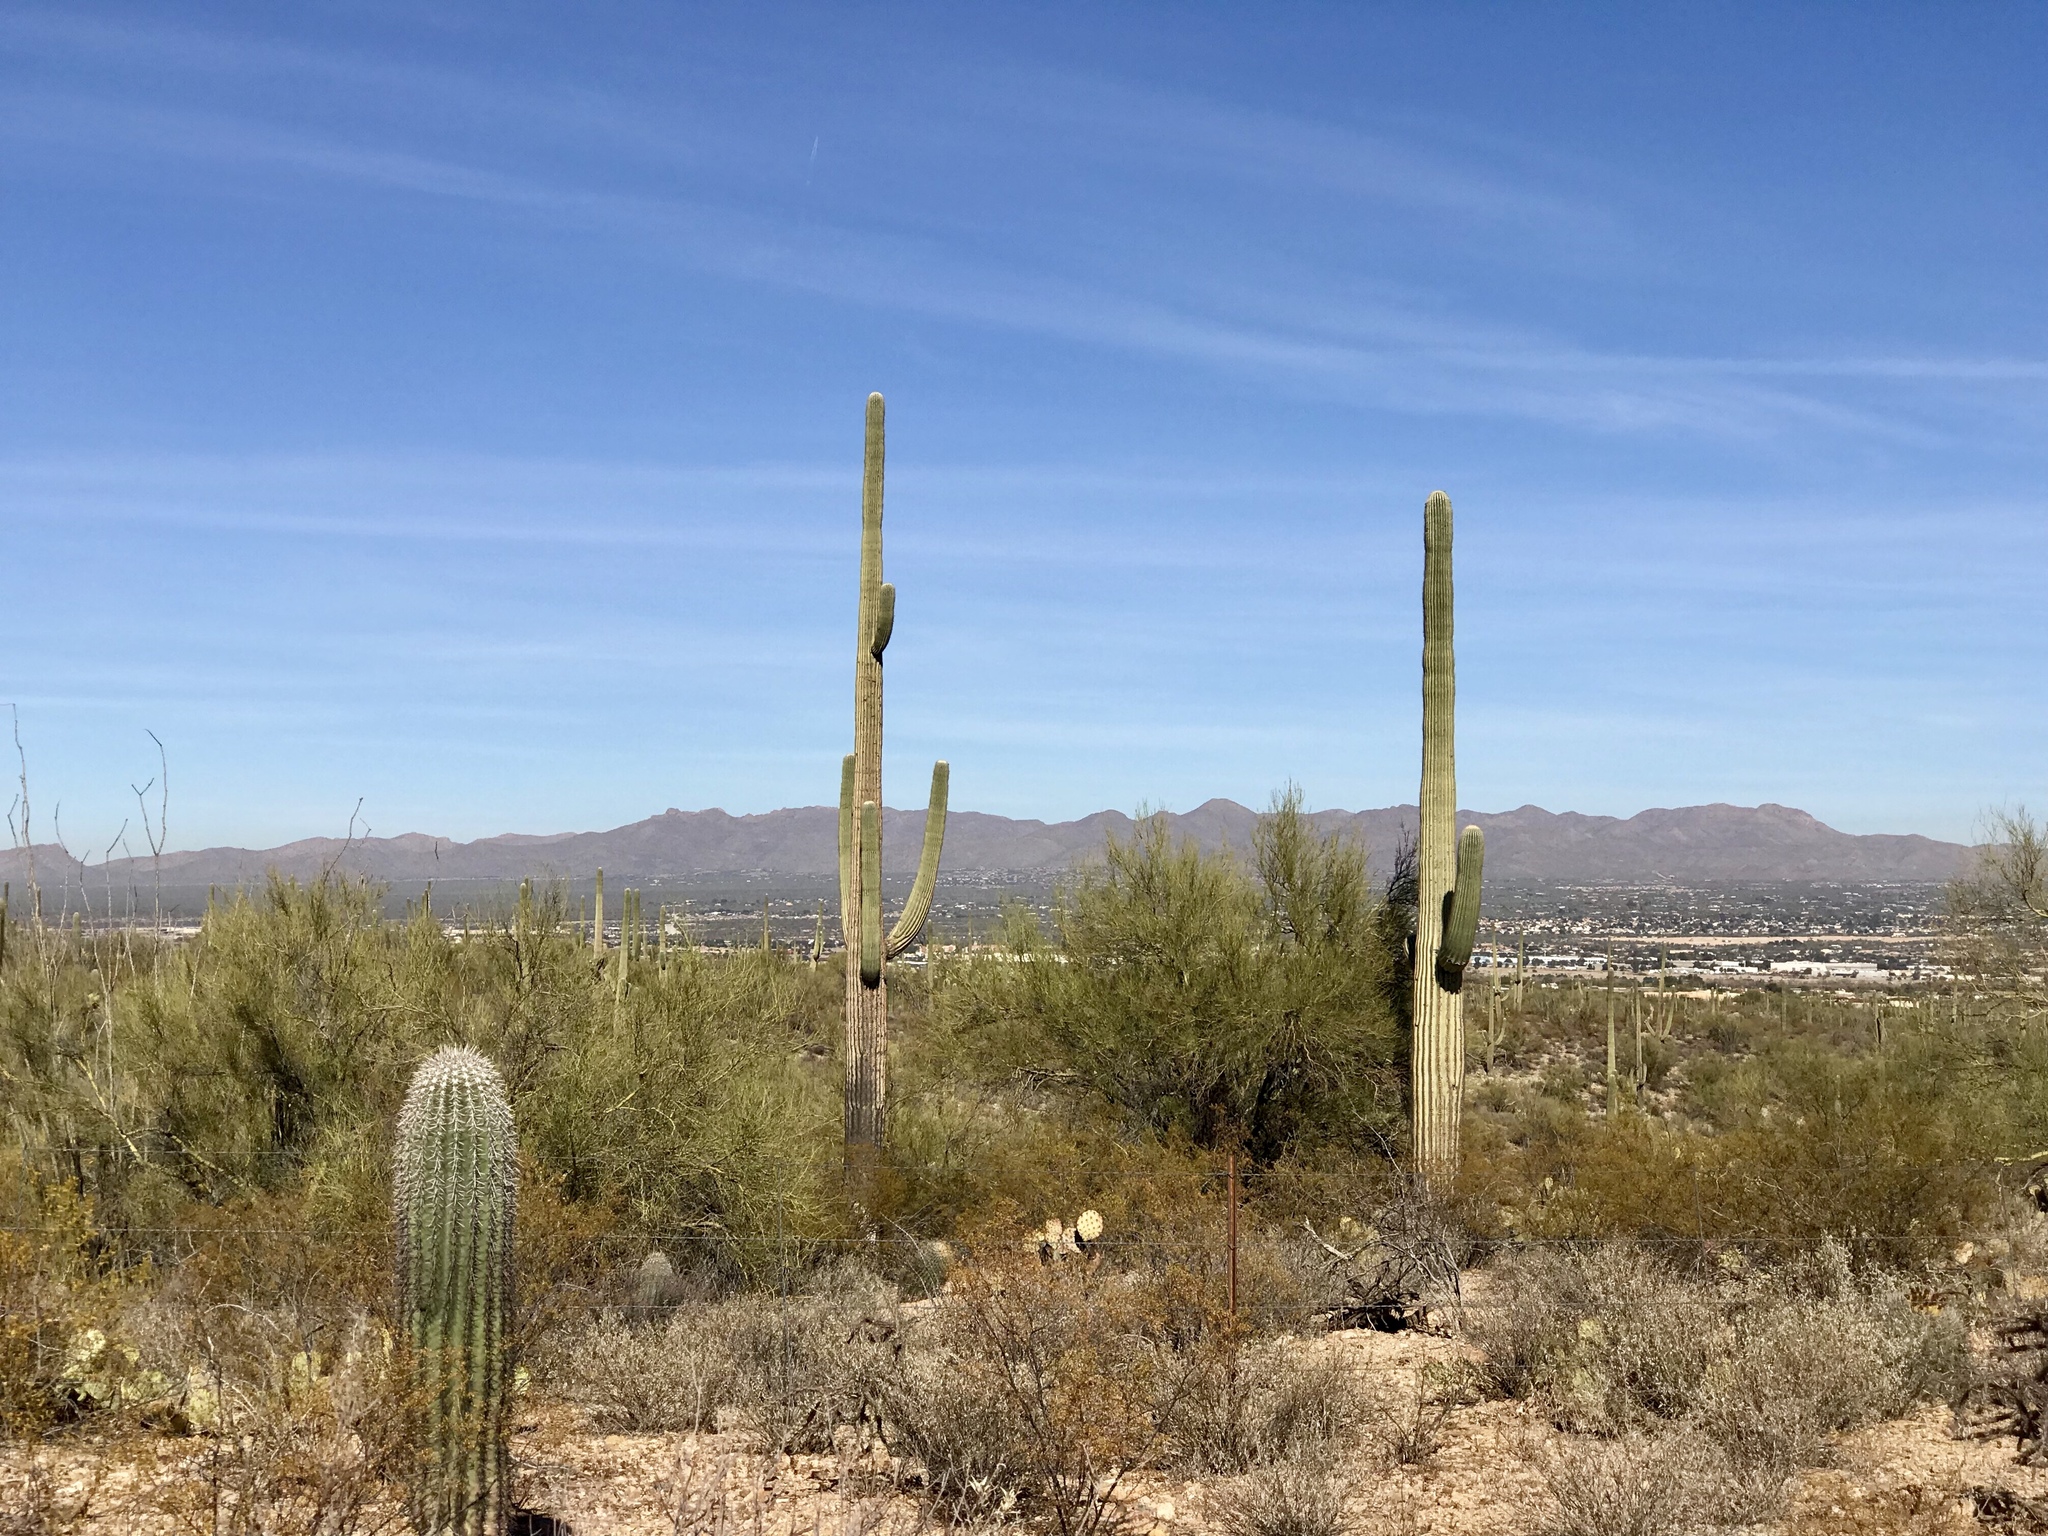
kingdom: Plantae
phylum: Tracheophyta
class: Magnoliopsida
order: Caryophyllales
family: Cactaceae
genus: Carnegiea
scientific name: Carnegiea gigantea
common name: Saguaro
